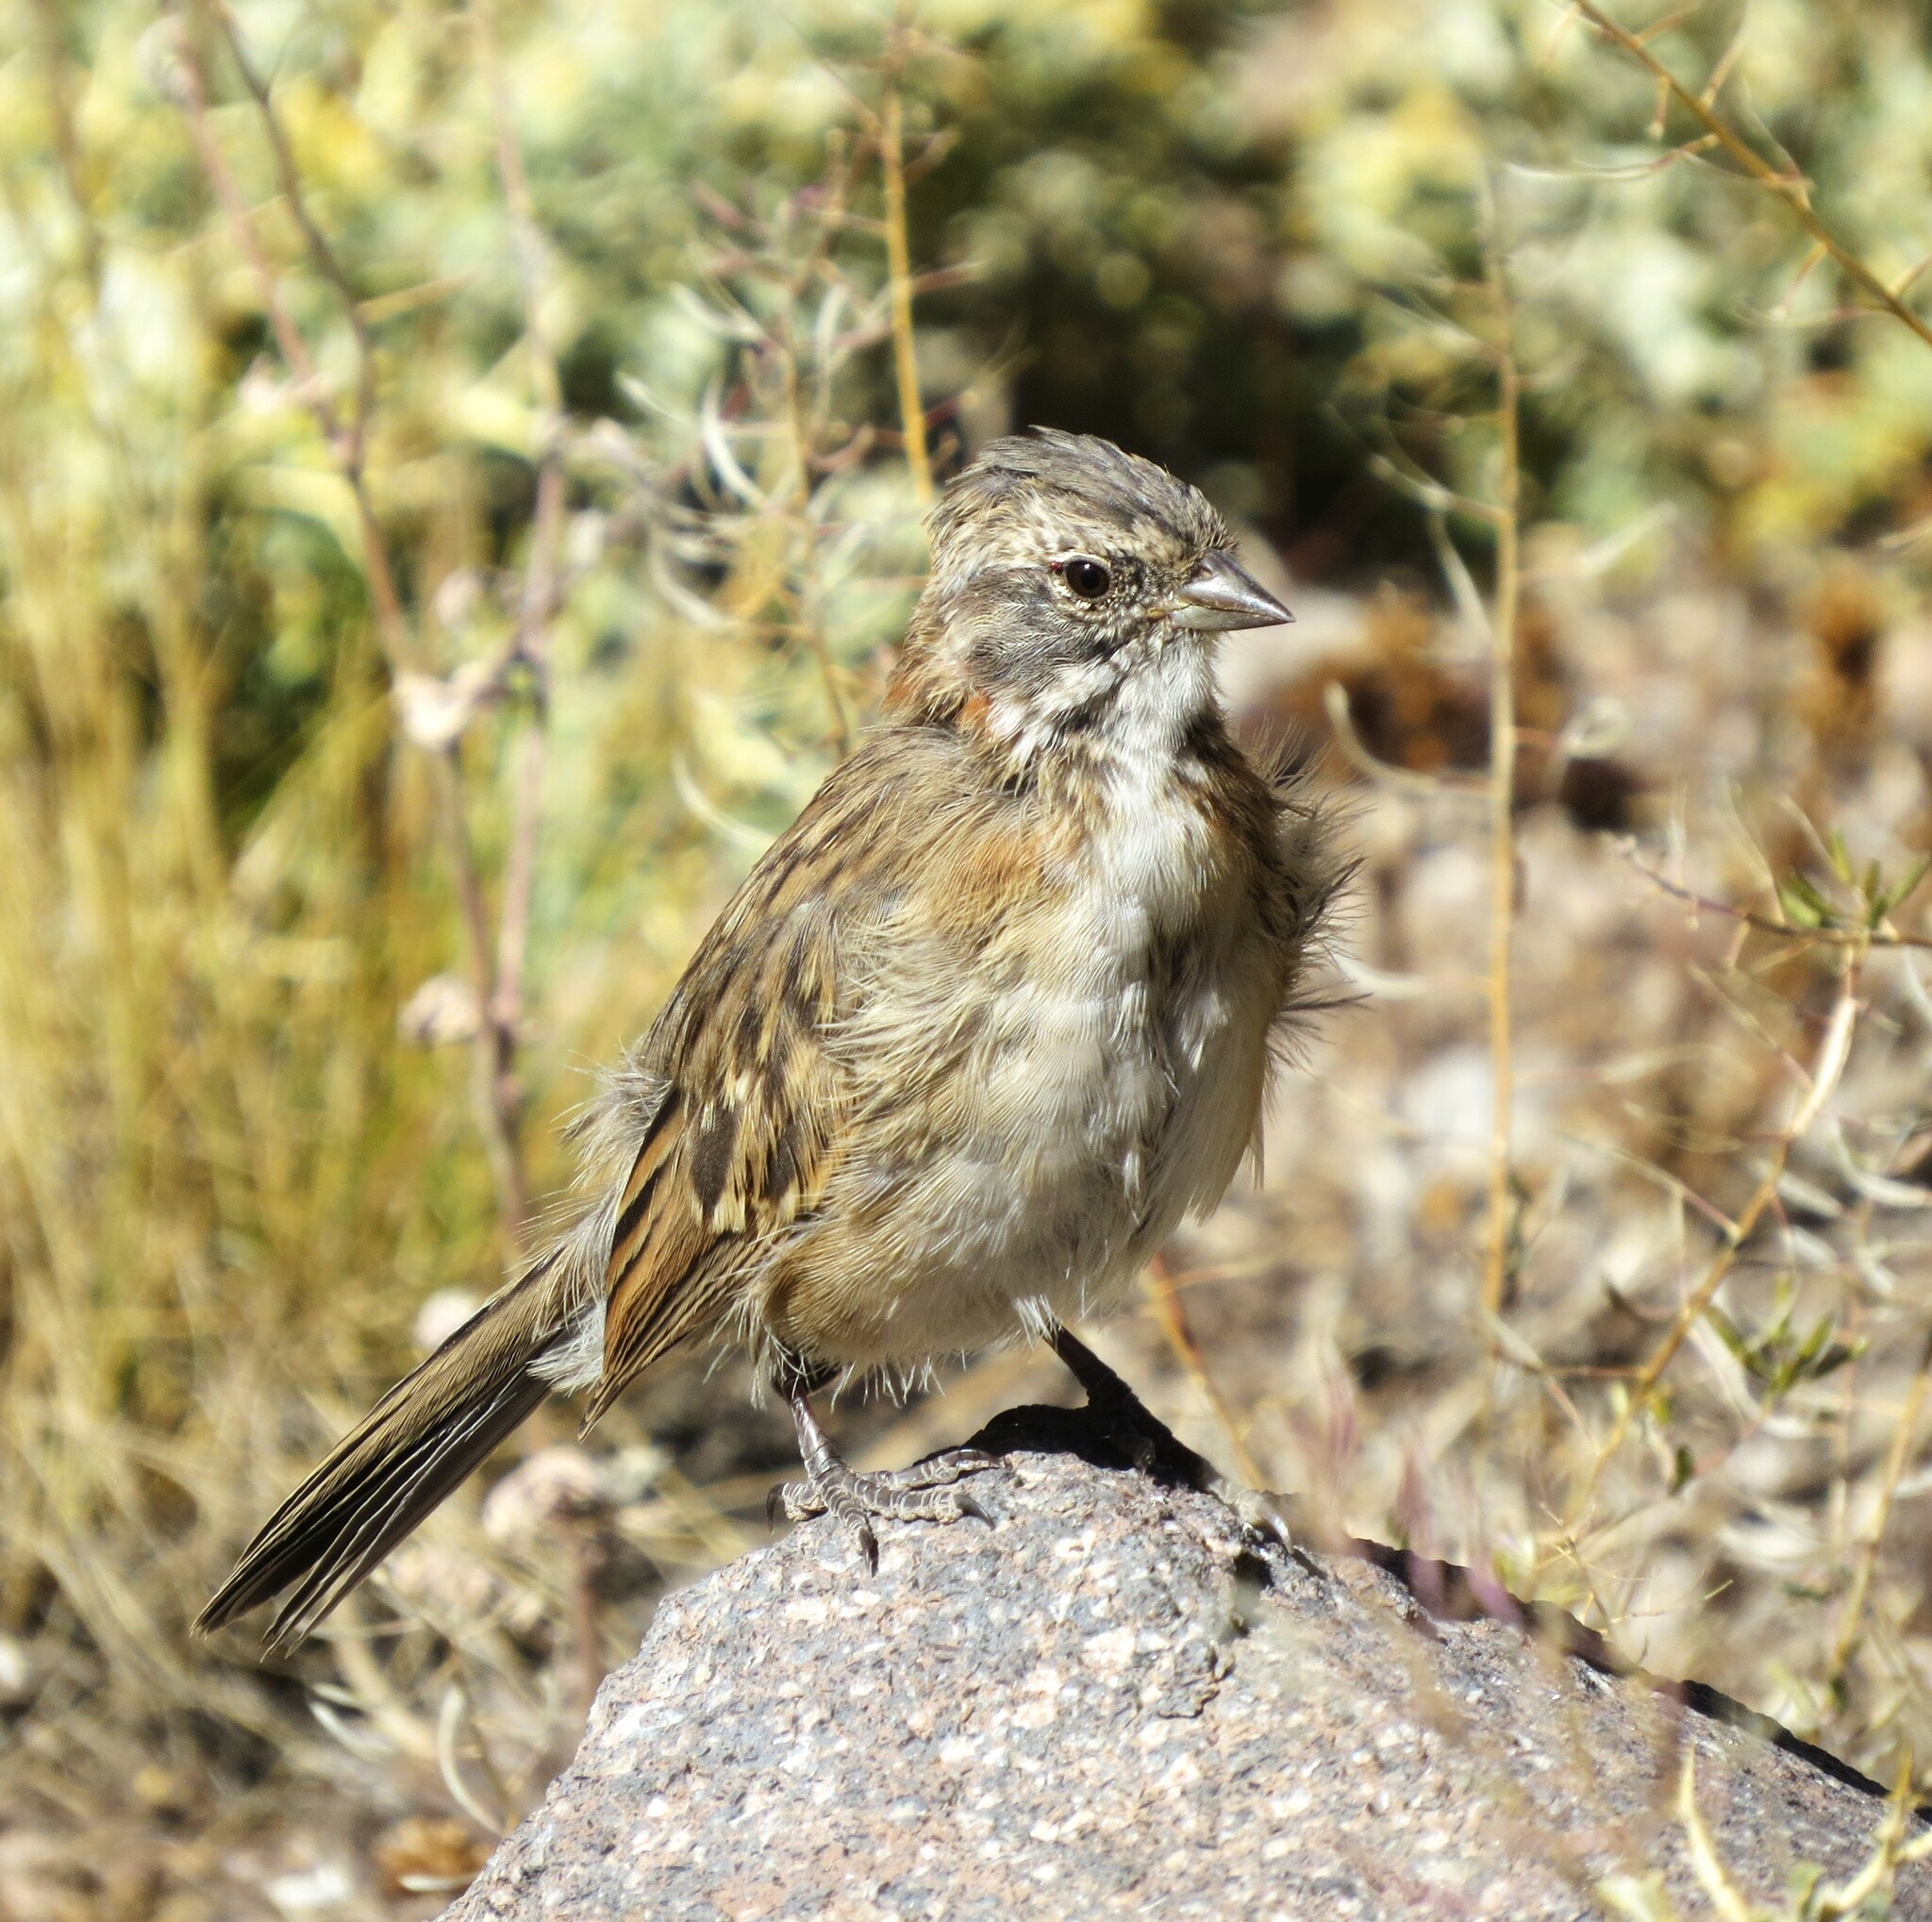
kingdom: Animalia
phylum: Chordata
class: Aves
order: Passeriformes
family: Passerellidae
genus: Zonotrichia
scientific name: Zonotrichia capensis
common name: Rufous-collared sparrow
